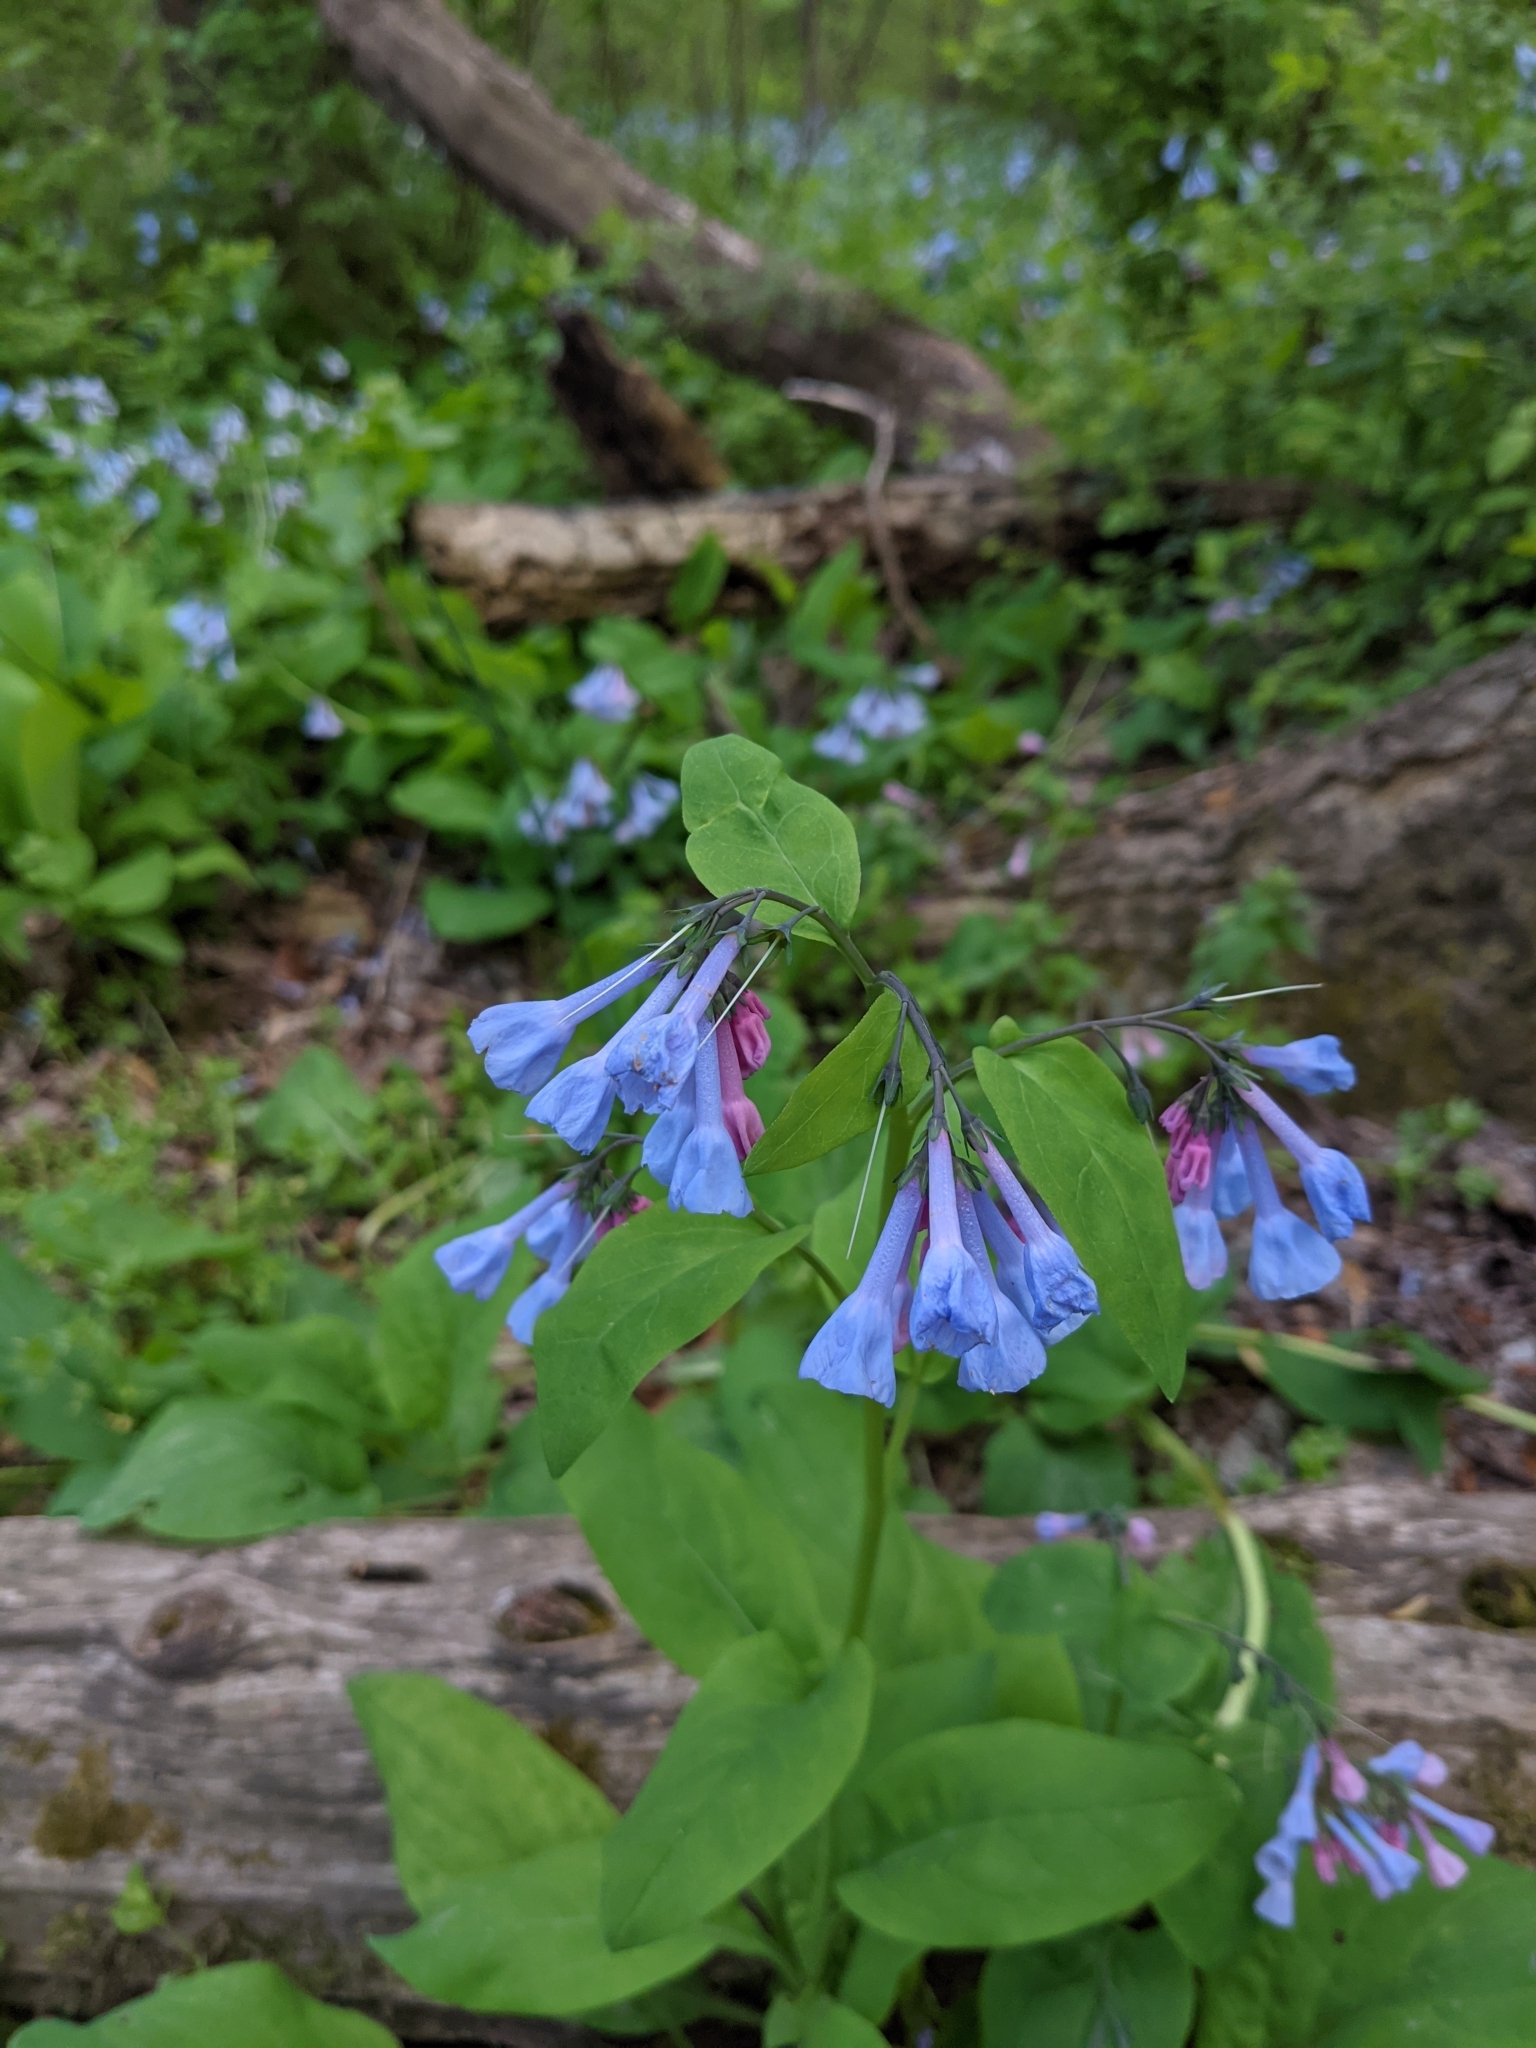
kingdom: Plantae
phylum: Tracheophyta
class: Magnoliopsida
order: Boraginales
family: Boraginaceae
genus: Mertensia
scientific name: Mertensia virginica
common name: Virginia bluebells
